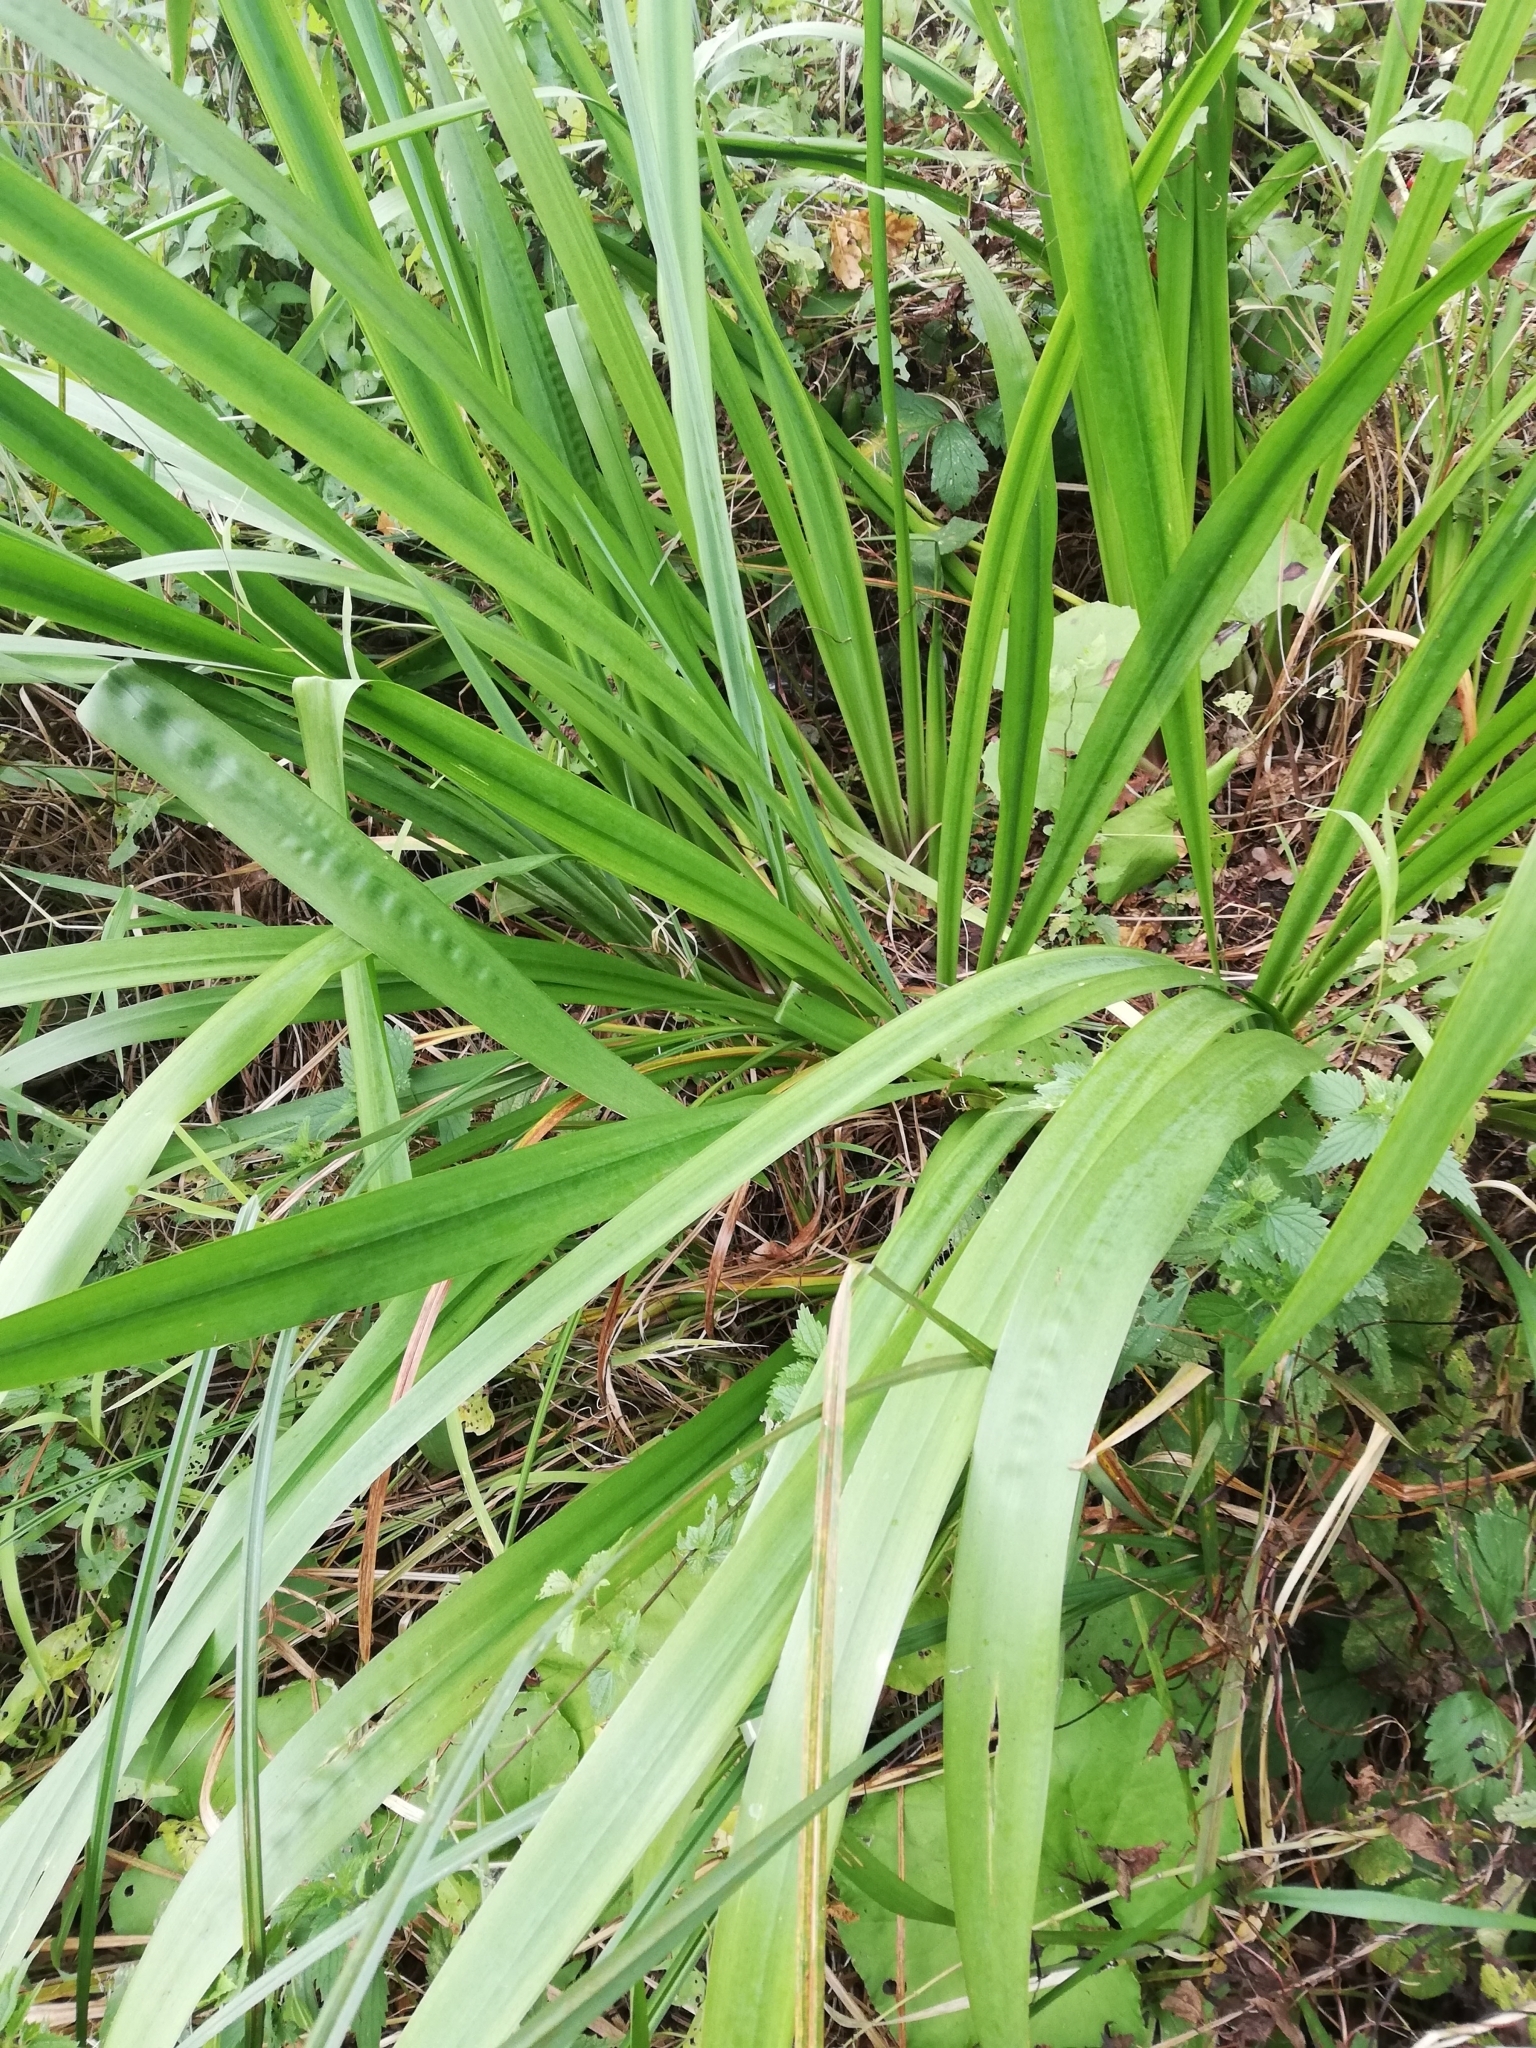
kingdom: Plantae
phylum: Tracheophyta
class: Liliopsida
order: Acorales
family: Acoraceae
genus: Acorus
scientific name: Acorus calamus
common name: Sweet-flag
